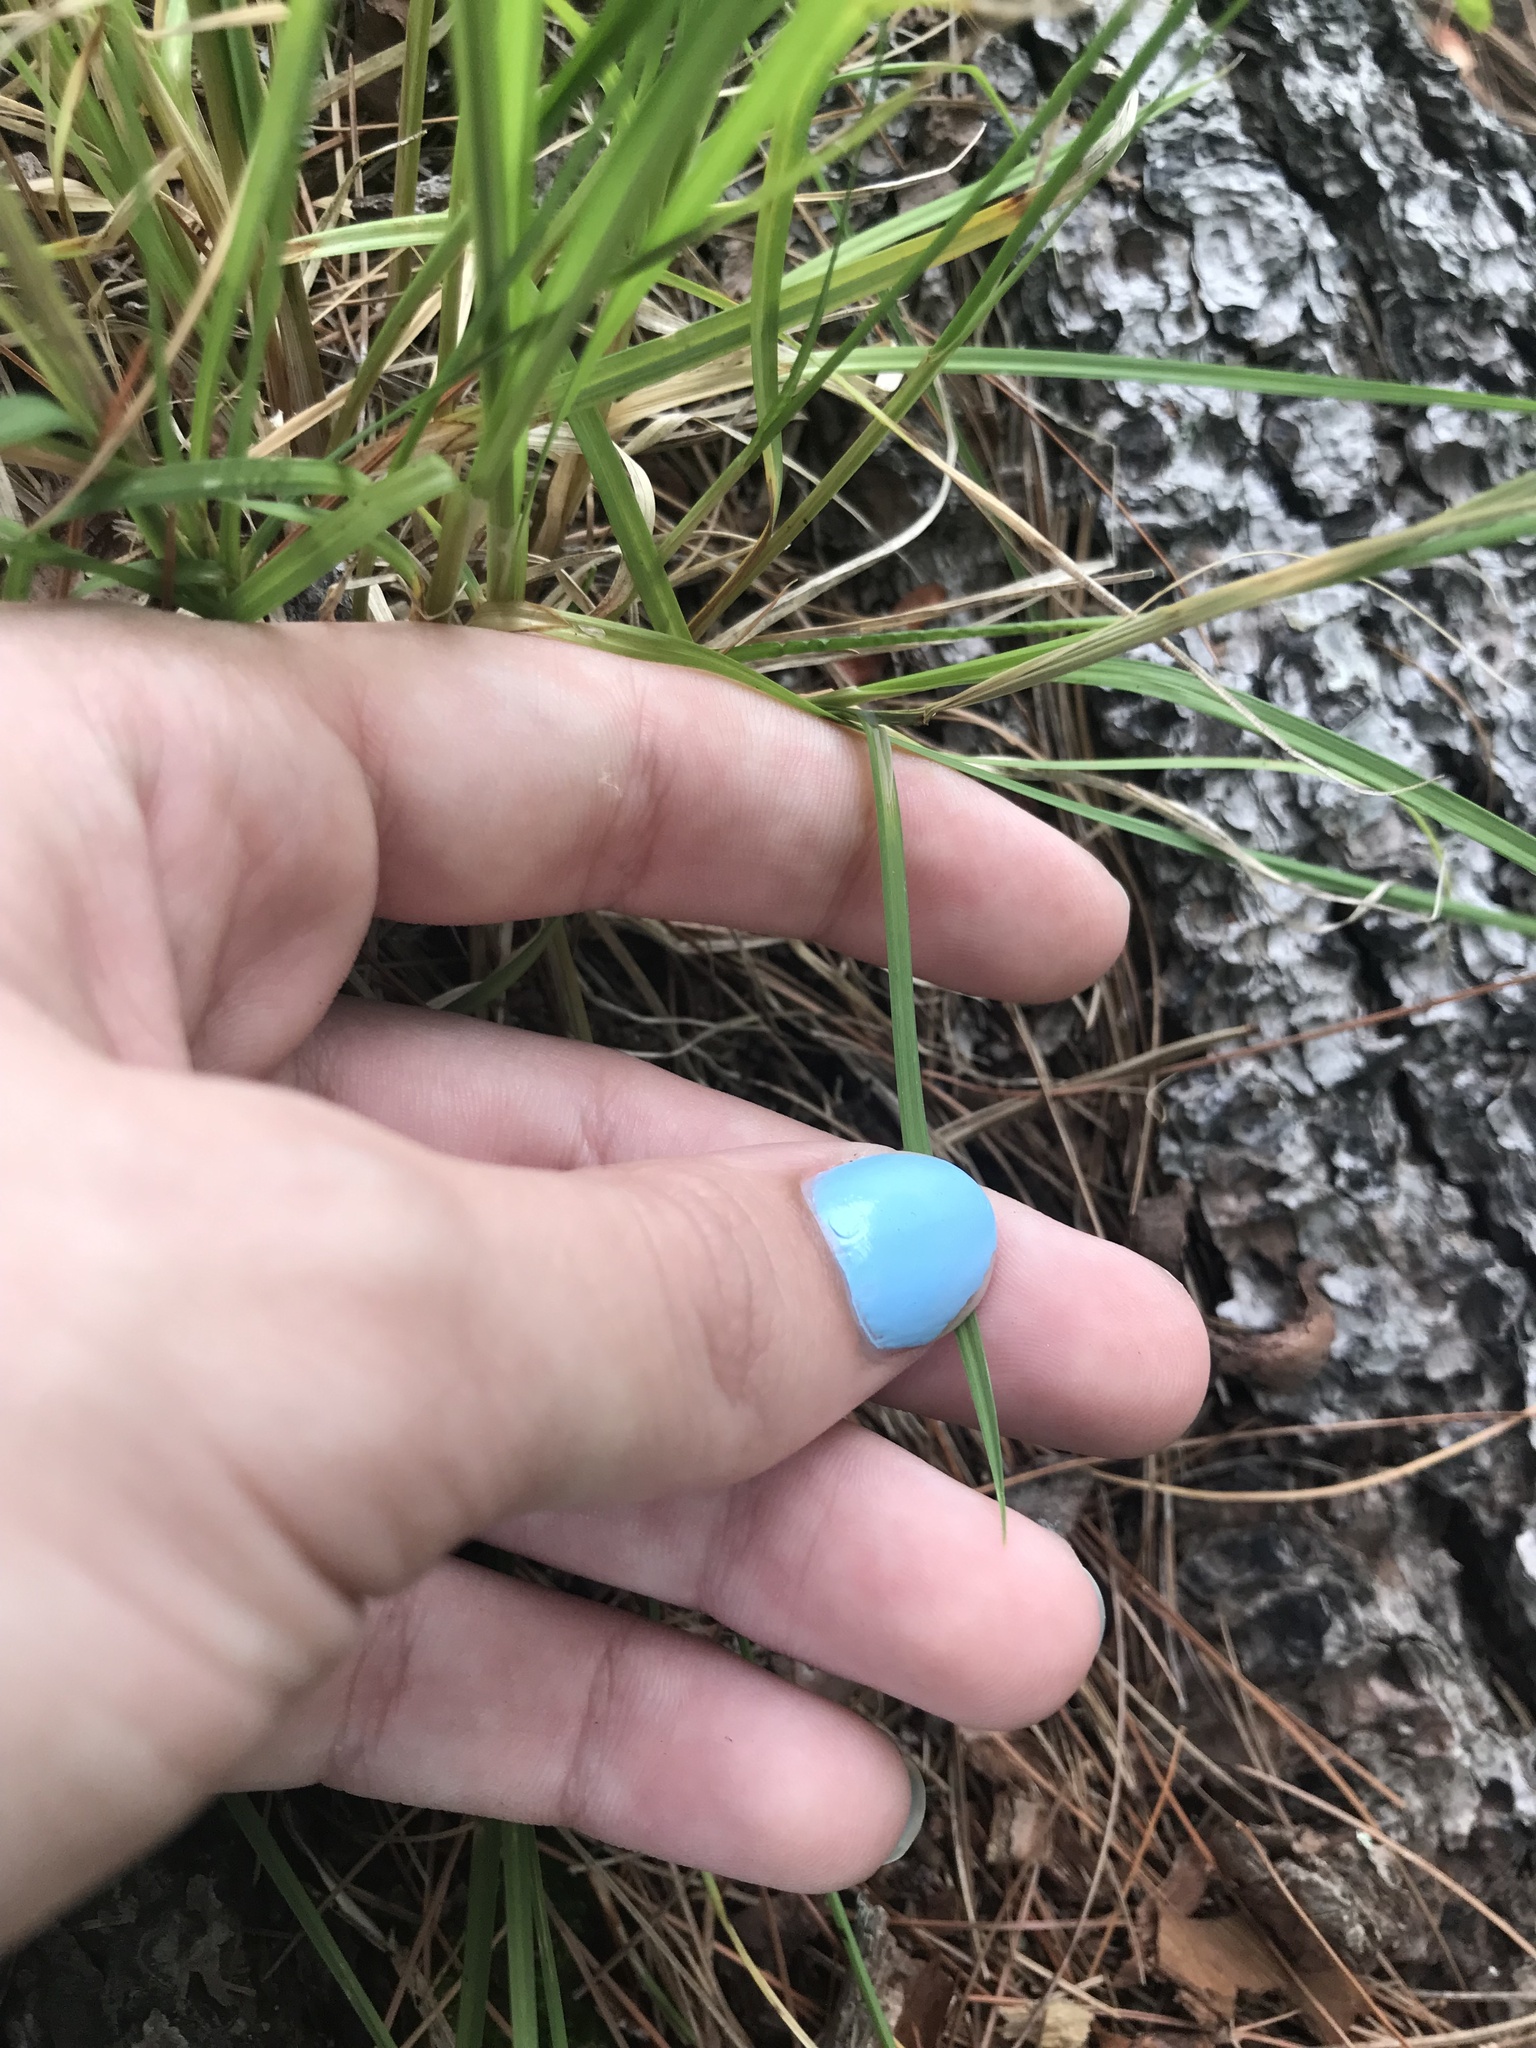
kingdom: Plantae
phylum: Tracheophyta
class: Liliopsida
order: Poales
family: Cyperaceae
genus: Carex
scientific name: Carex canescens
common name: White sedge
